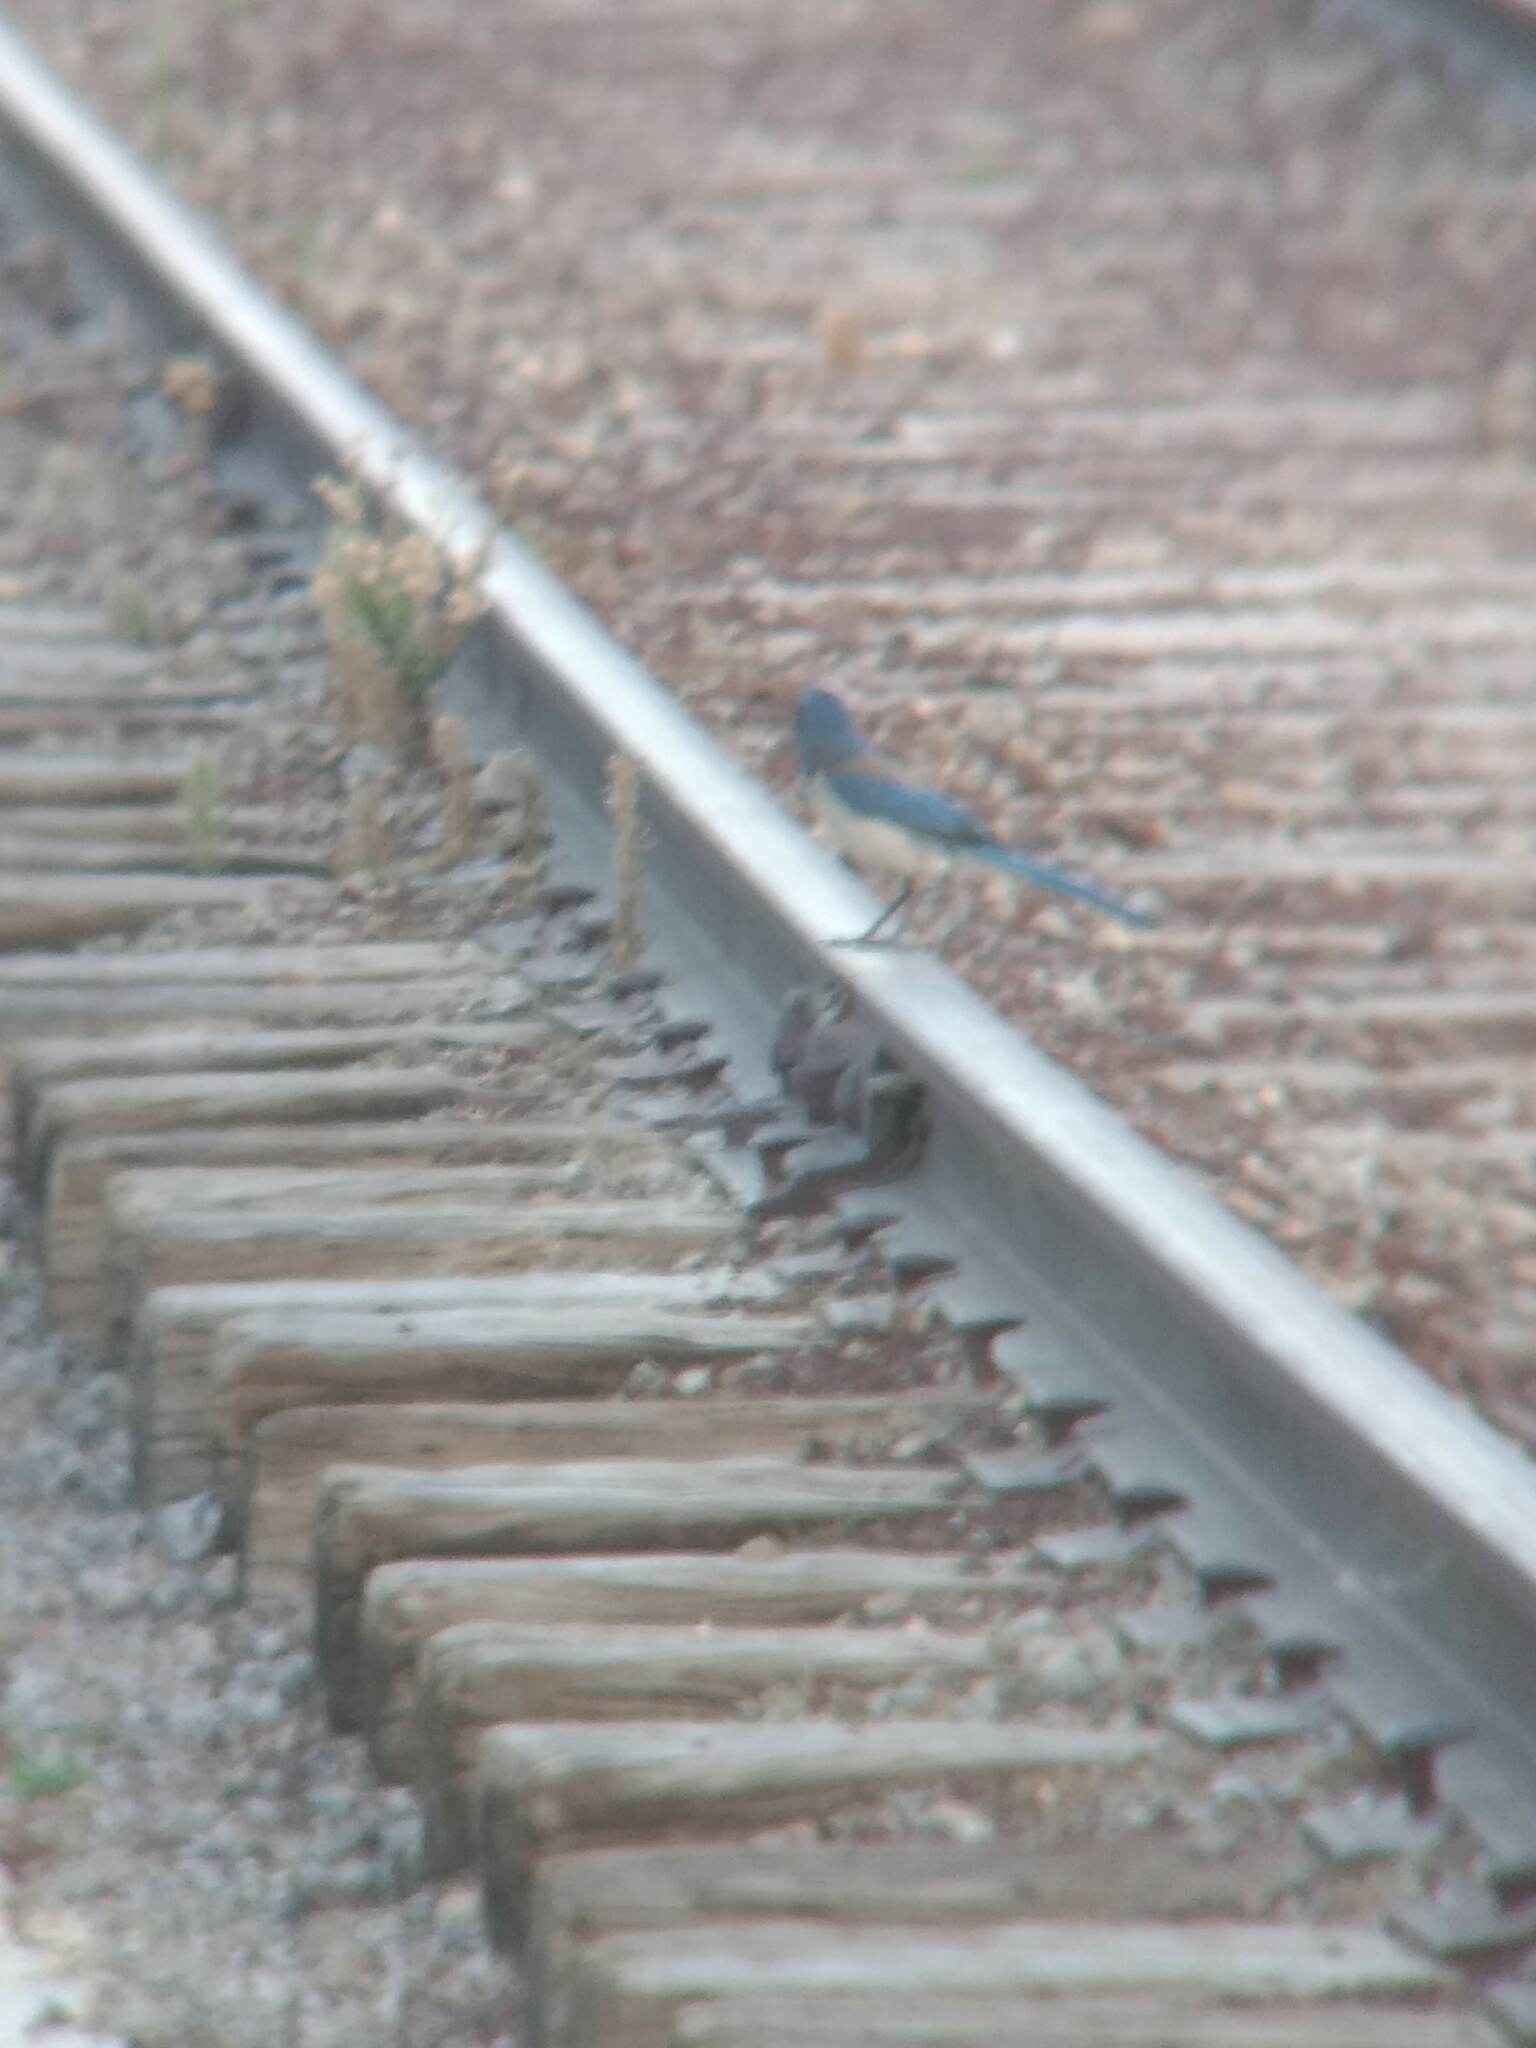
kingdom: Animalia
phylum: Chordata
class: Aves
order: Passeriformes
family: Corvidae
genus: Aphelocoma
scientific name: Aphelocoma californica
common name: California scrub-jay
